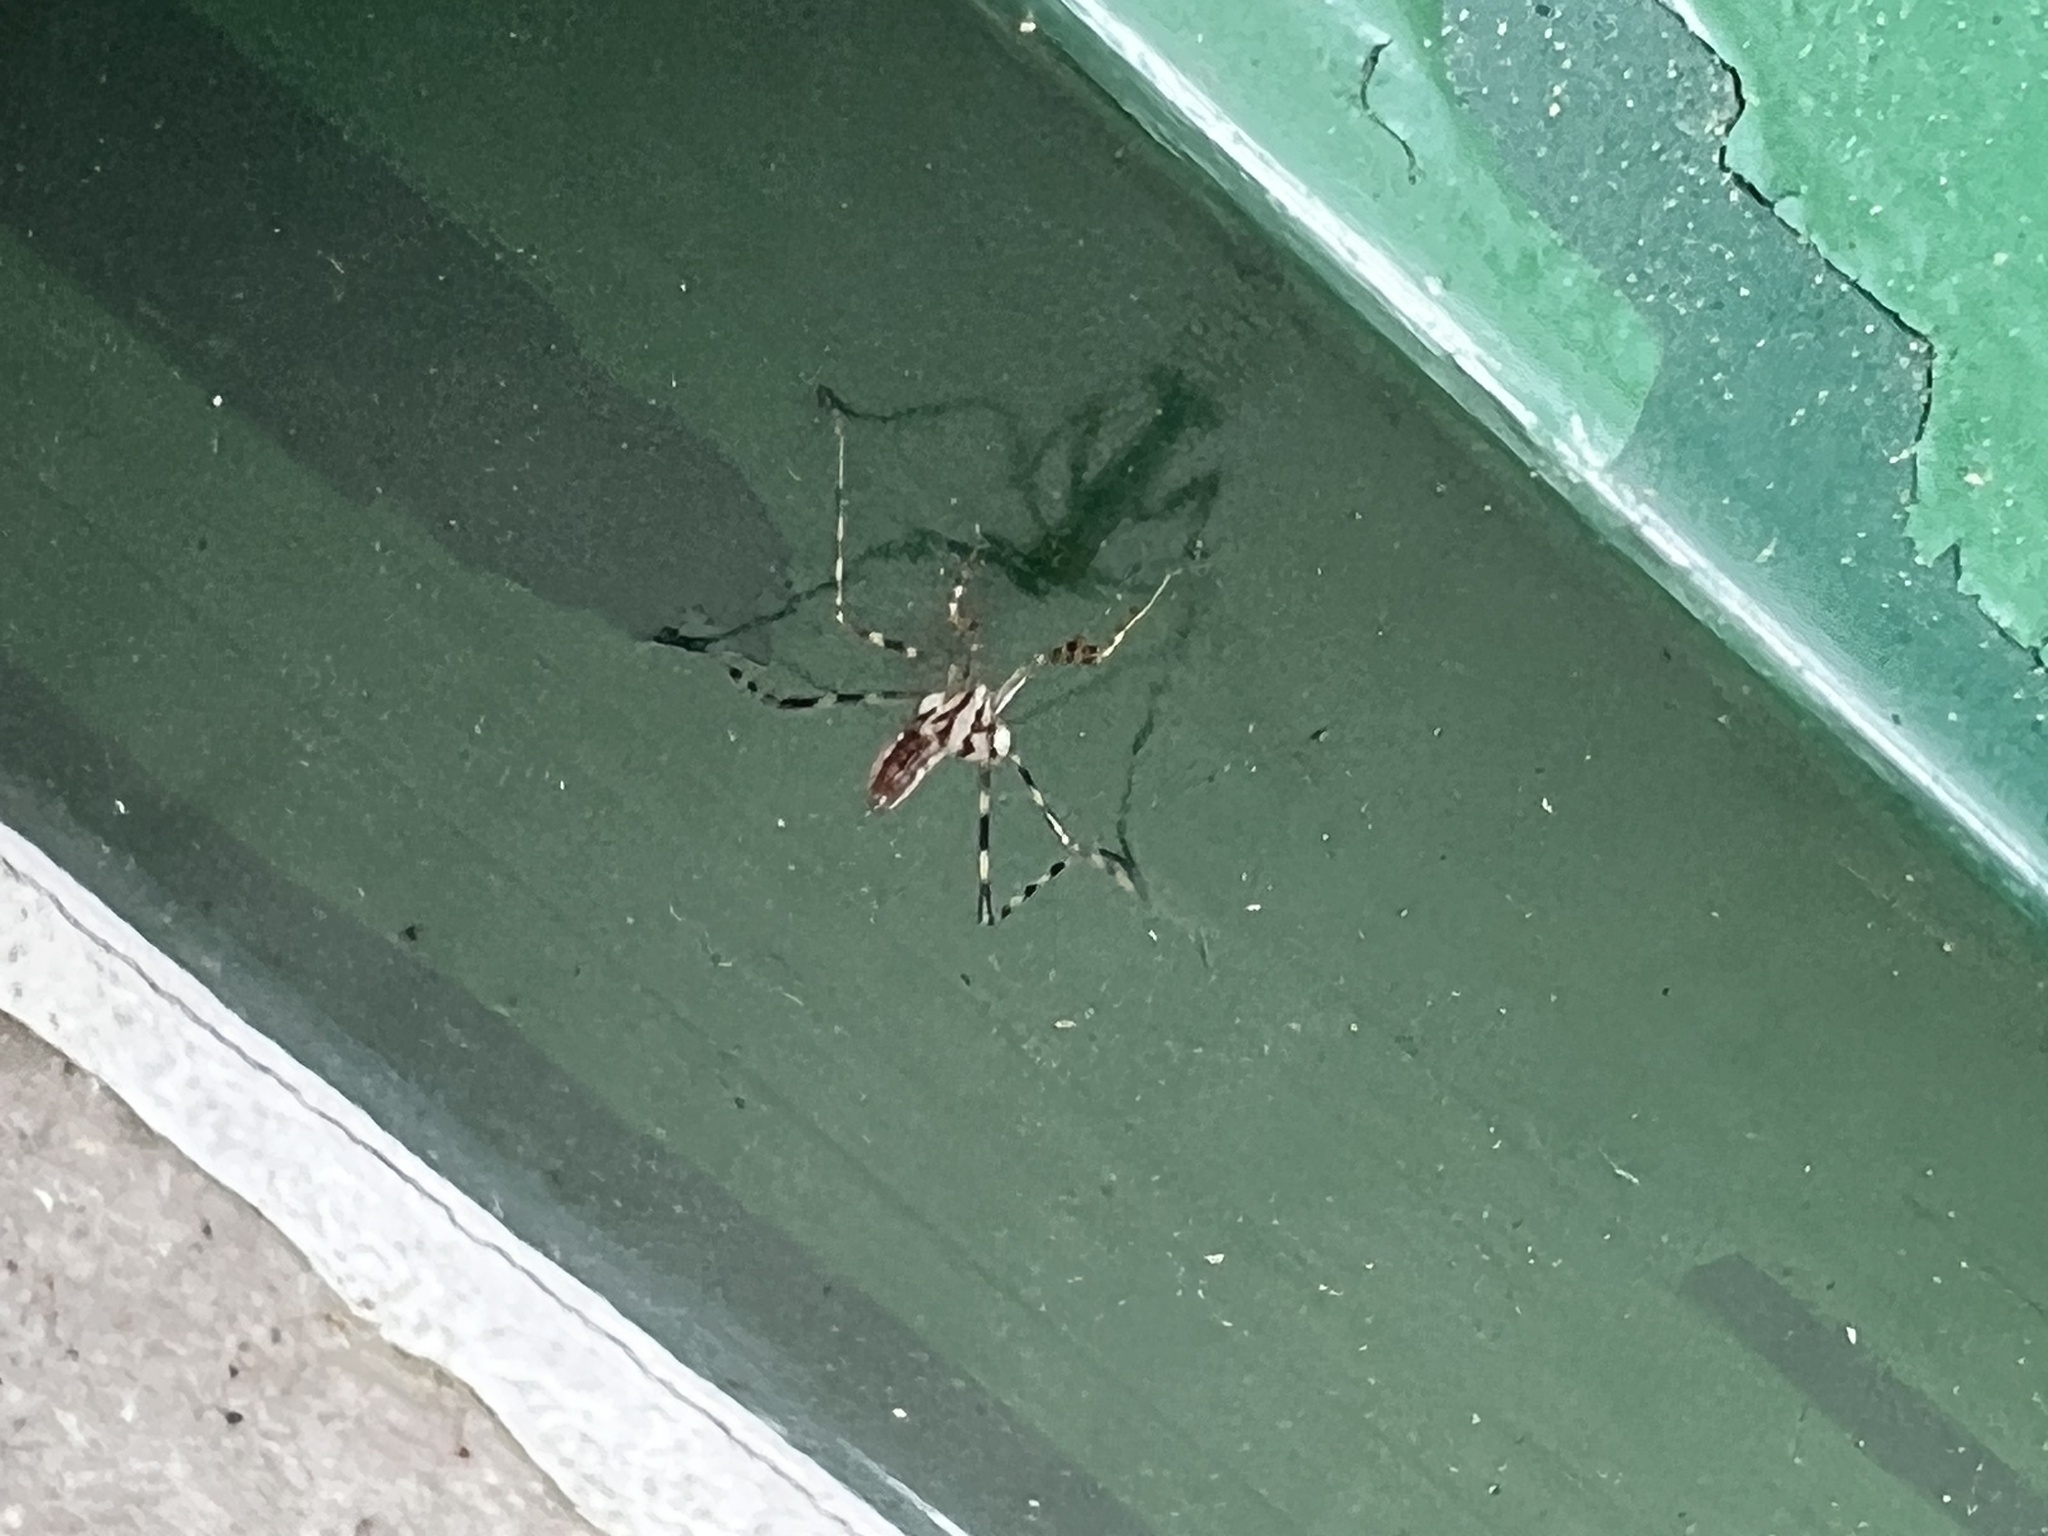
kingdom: Animalia
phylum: Arthropoda
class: Insecta
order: Mantodea
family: Miomantidae
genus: Miomantis
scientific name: Miomantis caffra
